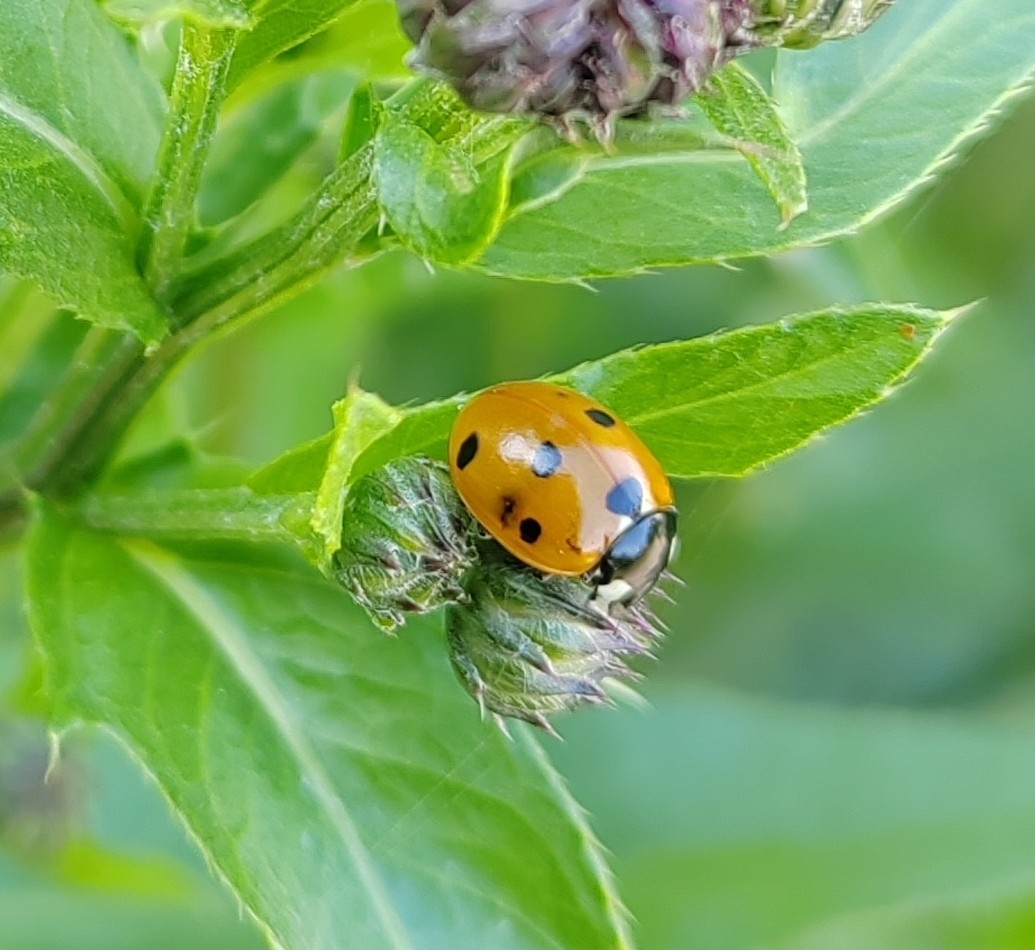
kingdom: Animalia
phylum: Arthropoda
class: Insecta
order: Coleoptera
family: Coccinellidae
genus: Coccinella
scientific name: Coccinella septempunctata
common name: Sevenspotted lady beetle
